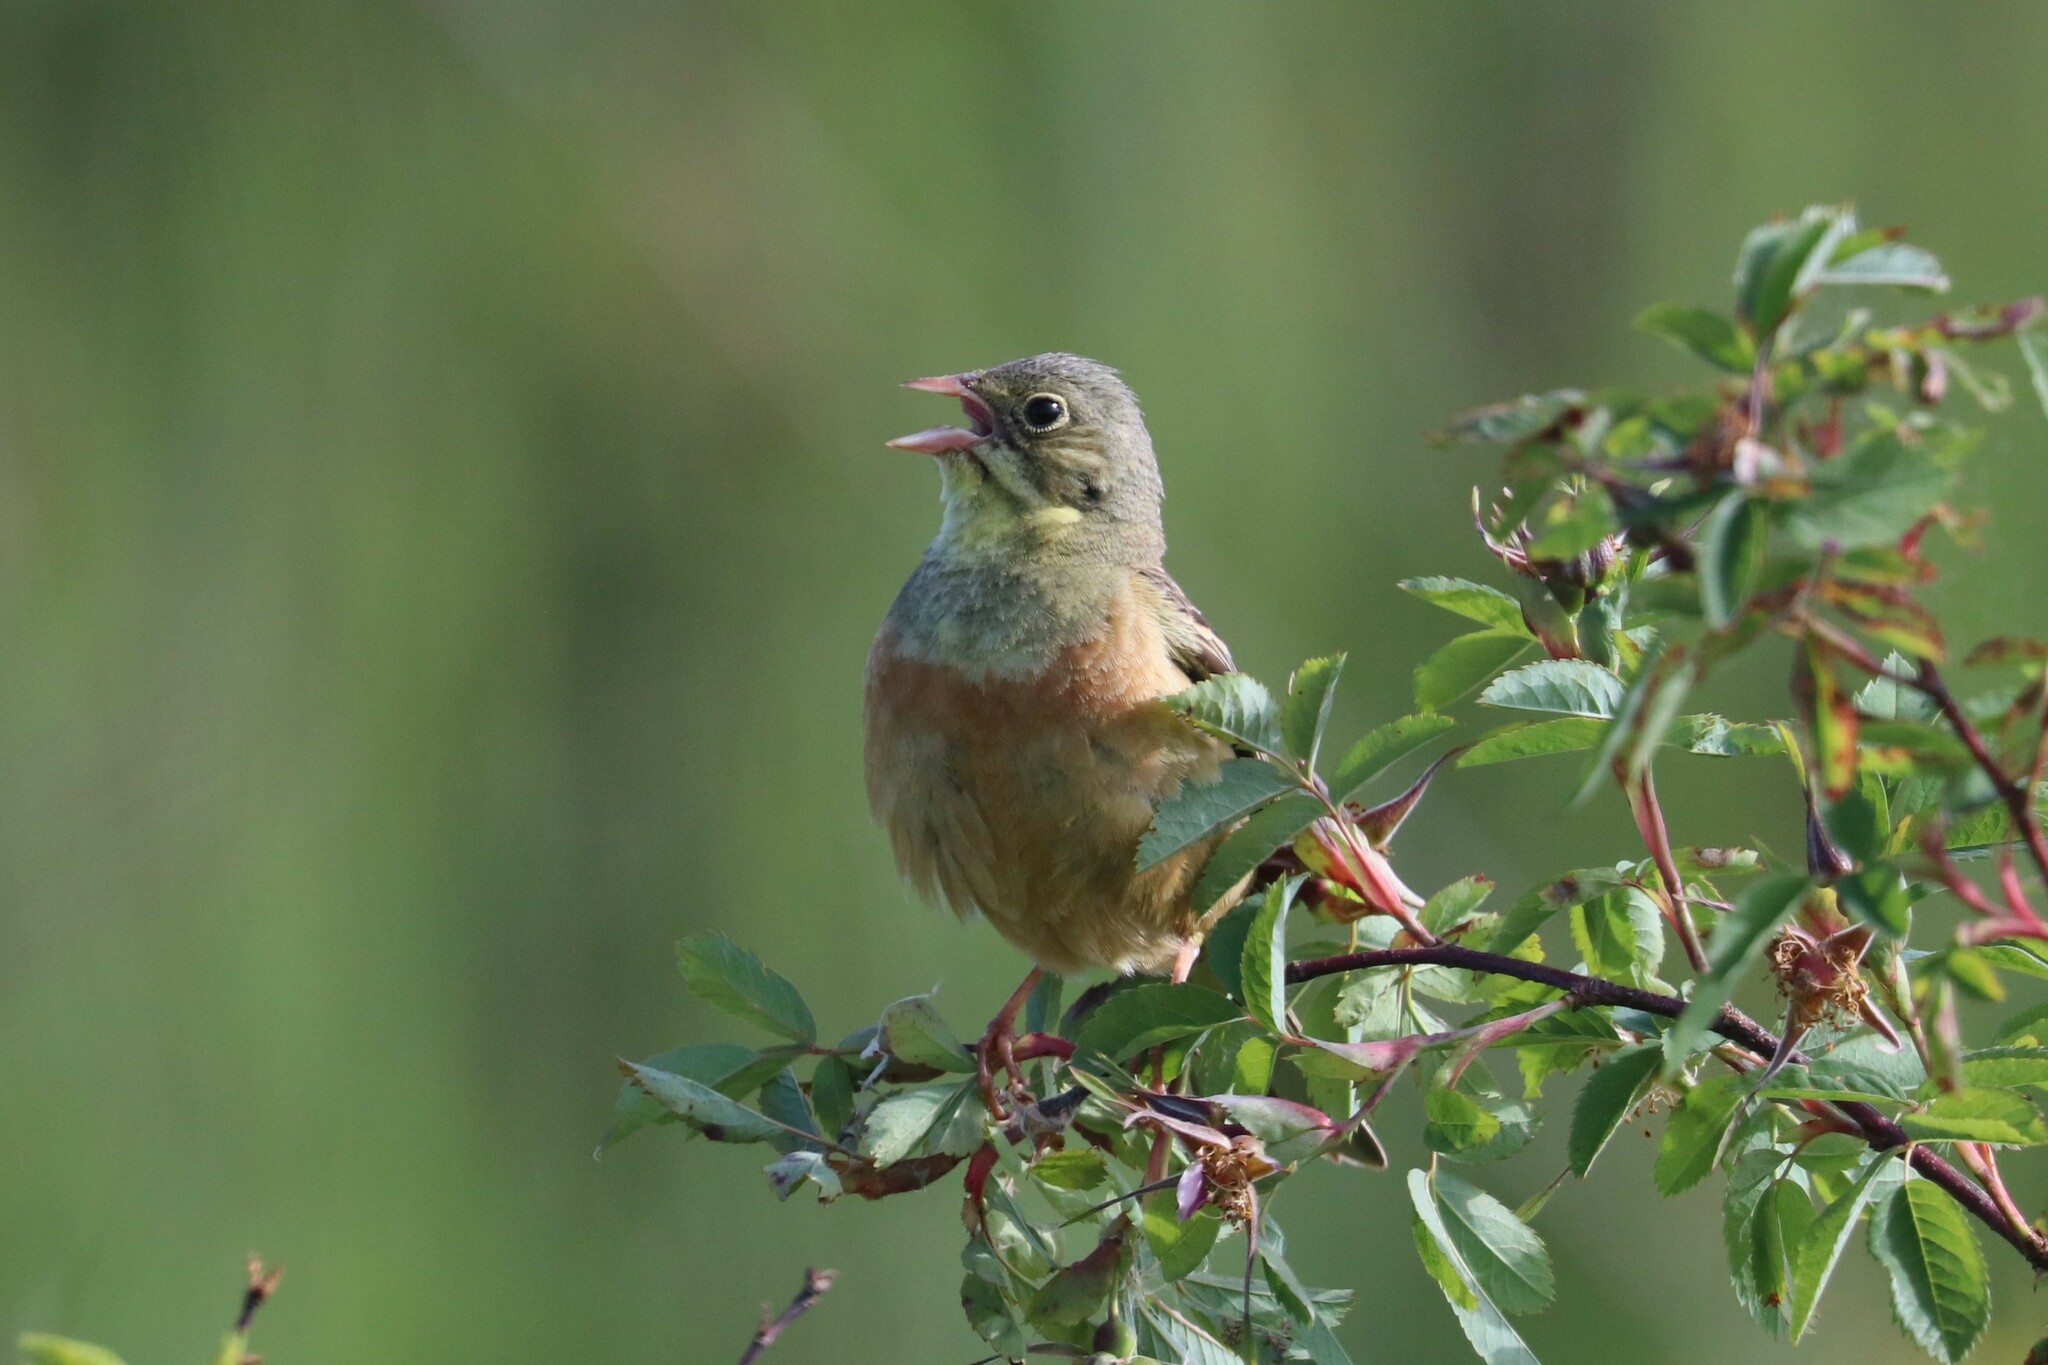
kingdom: Animalia
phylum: Chordata
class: Aves
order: Passeriformes
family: Emberizidae
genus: Emberiza
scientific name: Emberiza hortulana
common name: Ortolan bunting
